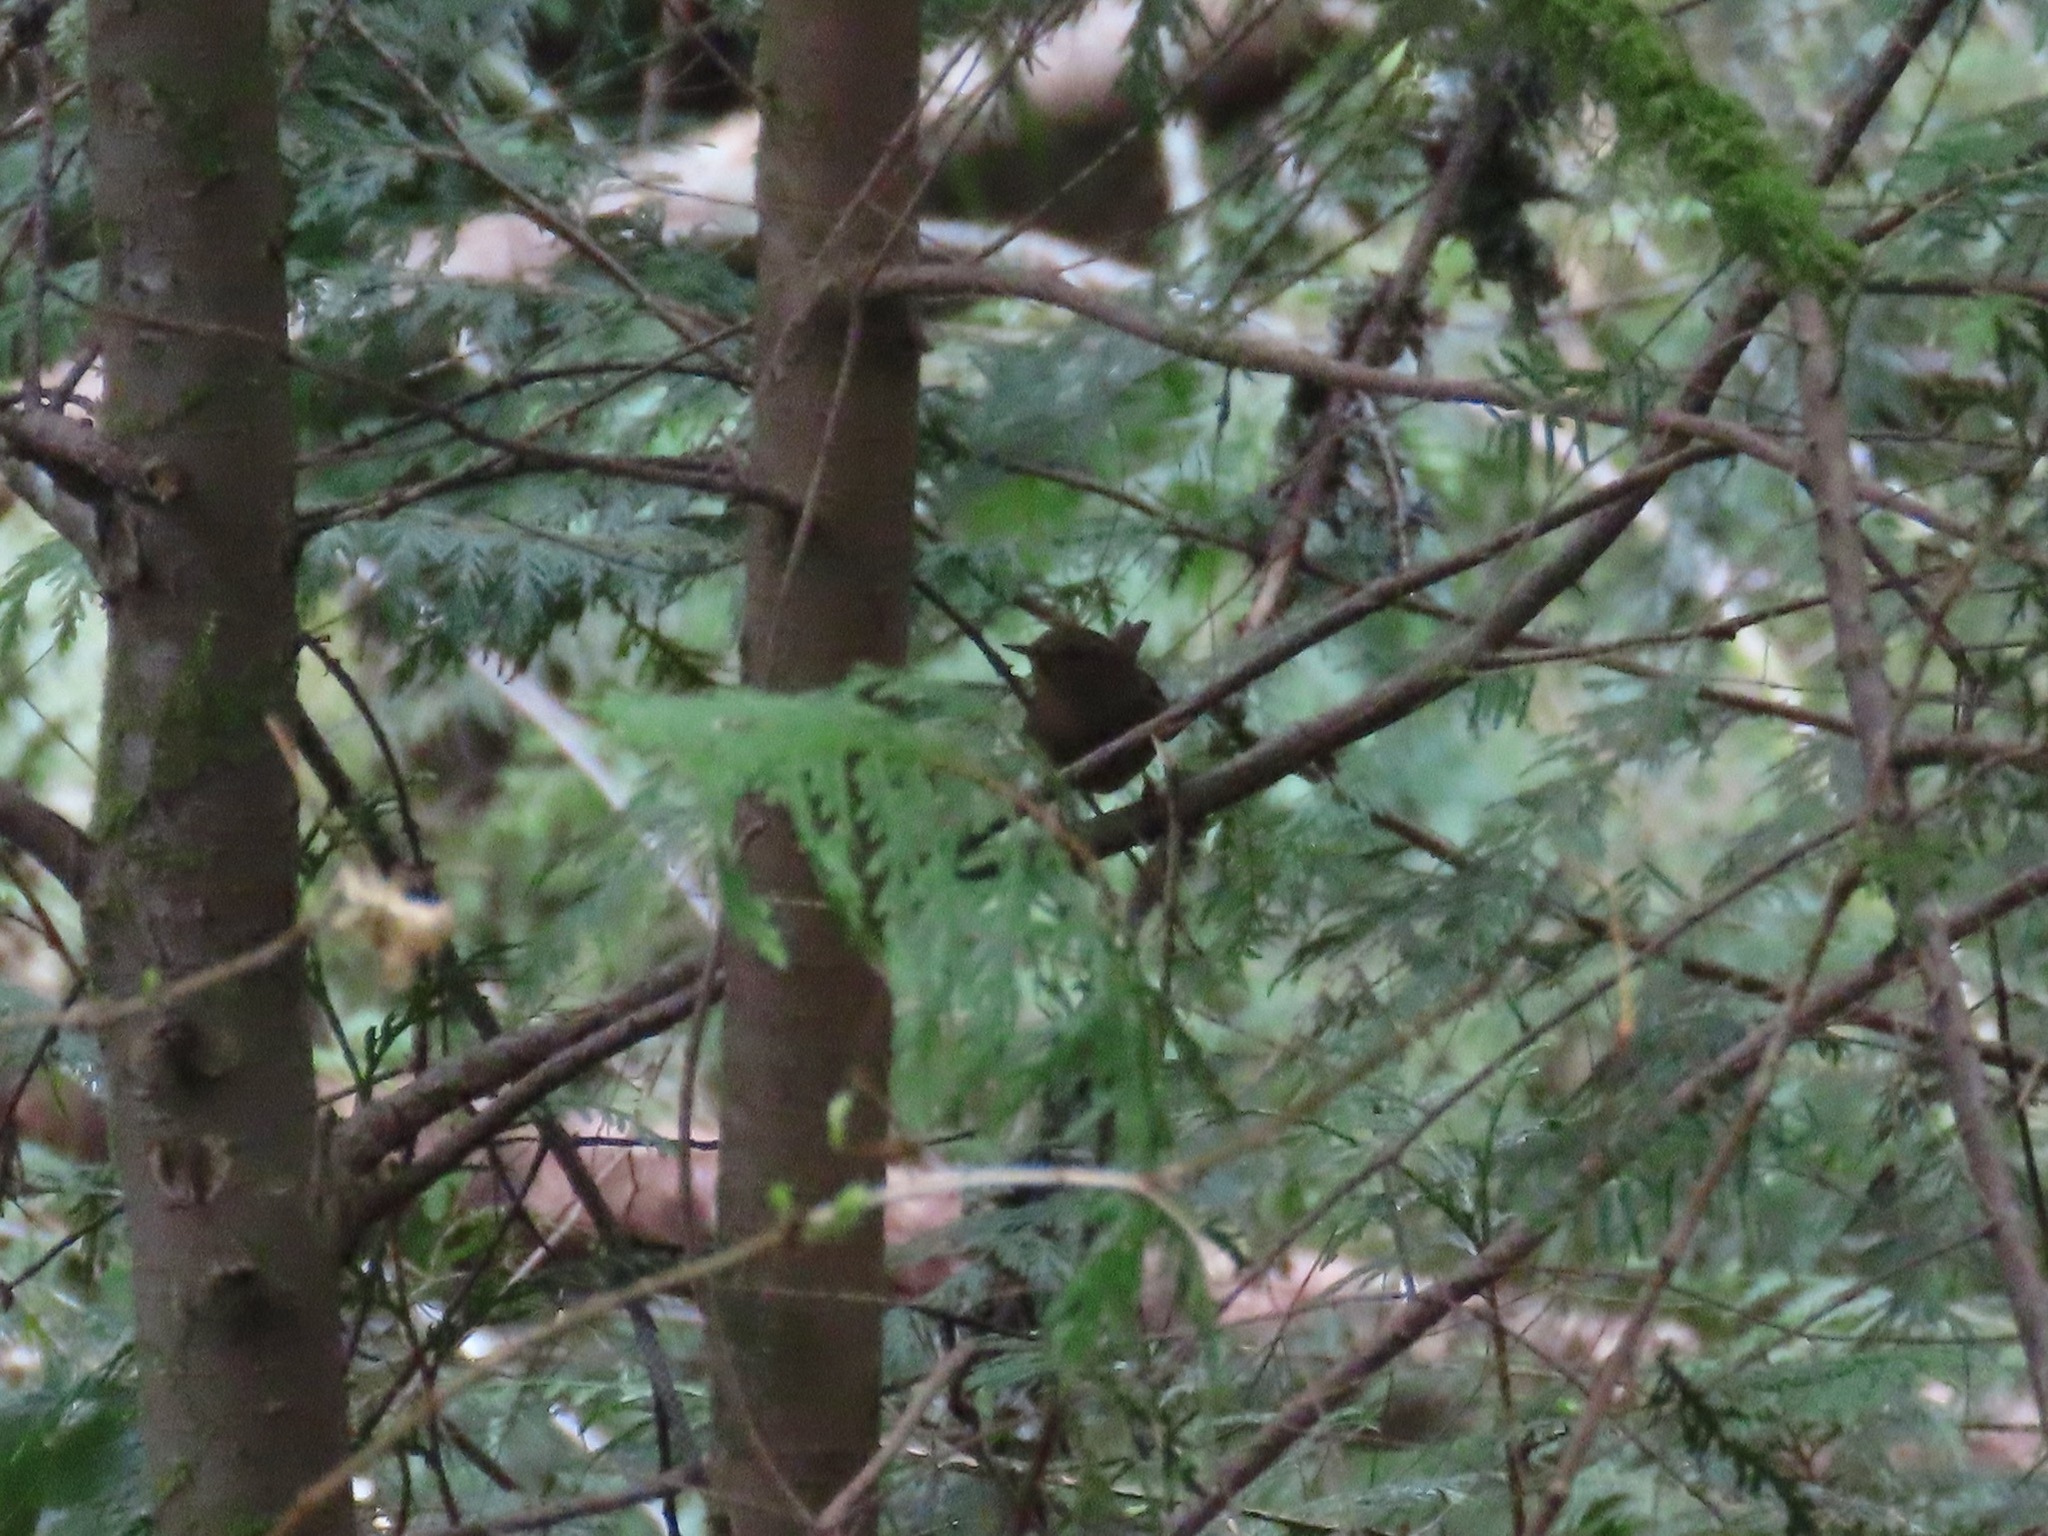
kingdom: Animalia
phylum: Chordata
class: Aves
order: Passeriformes
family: Troglodytidae
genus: Troglodytes
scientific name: Troglodytes pacificus
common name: Pacific wren
